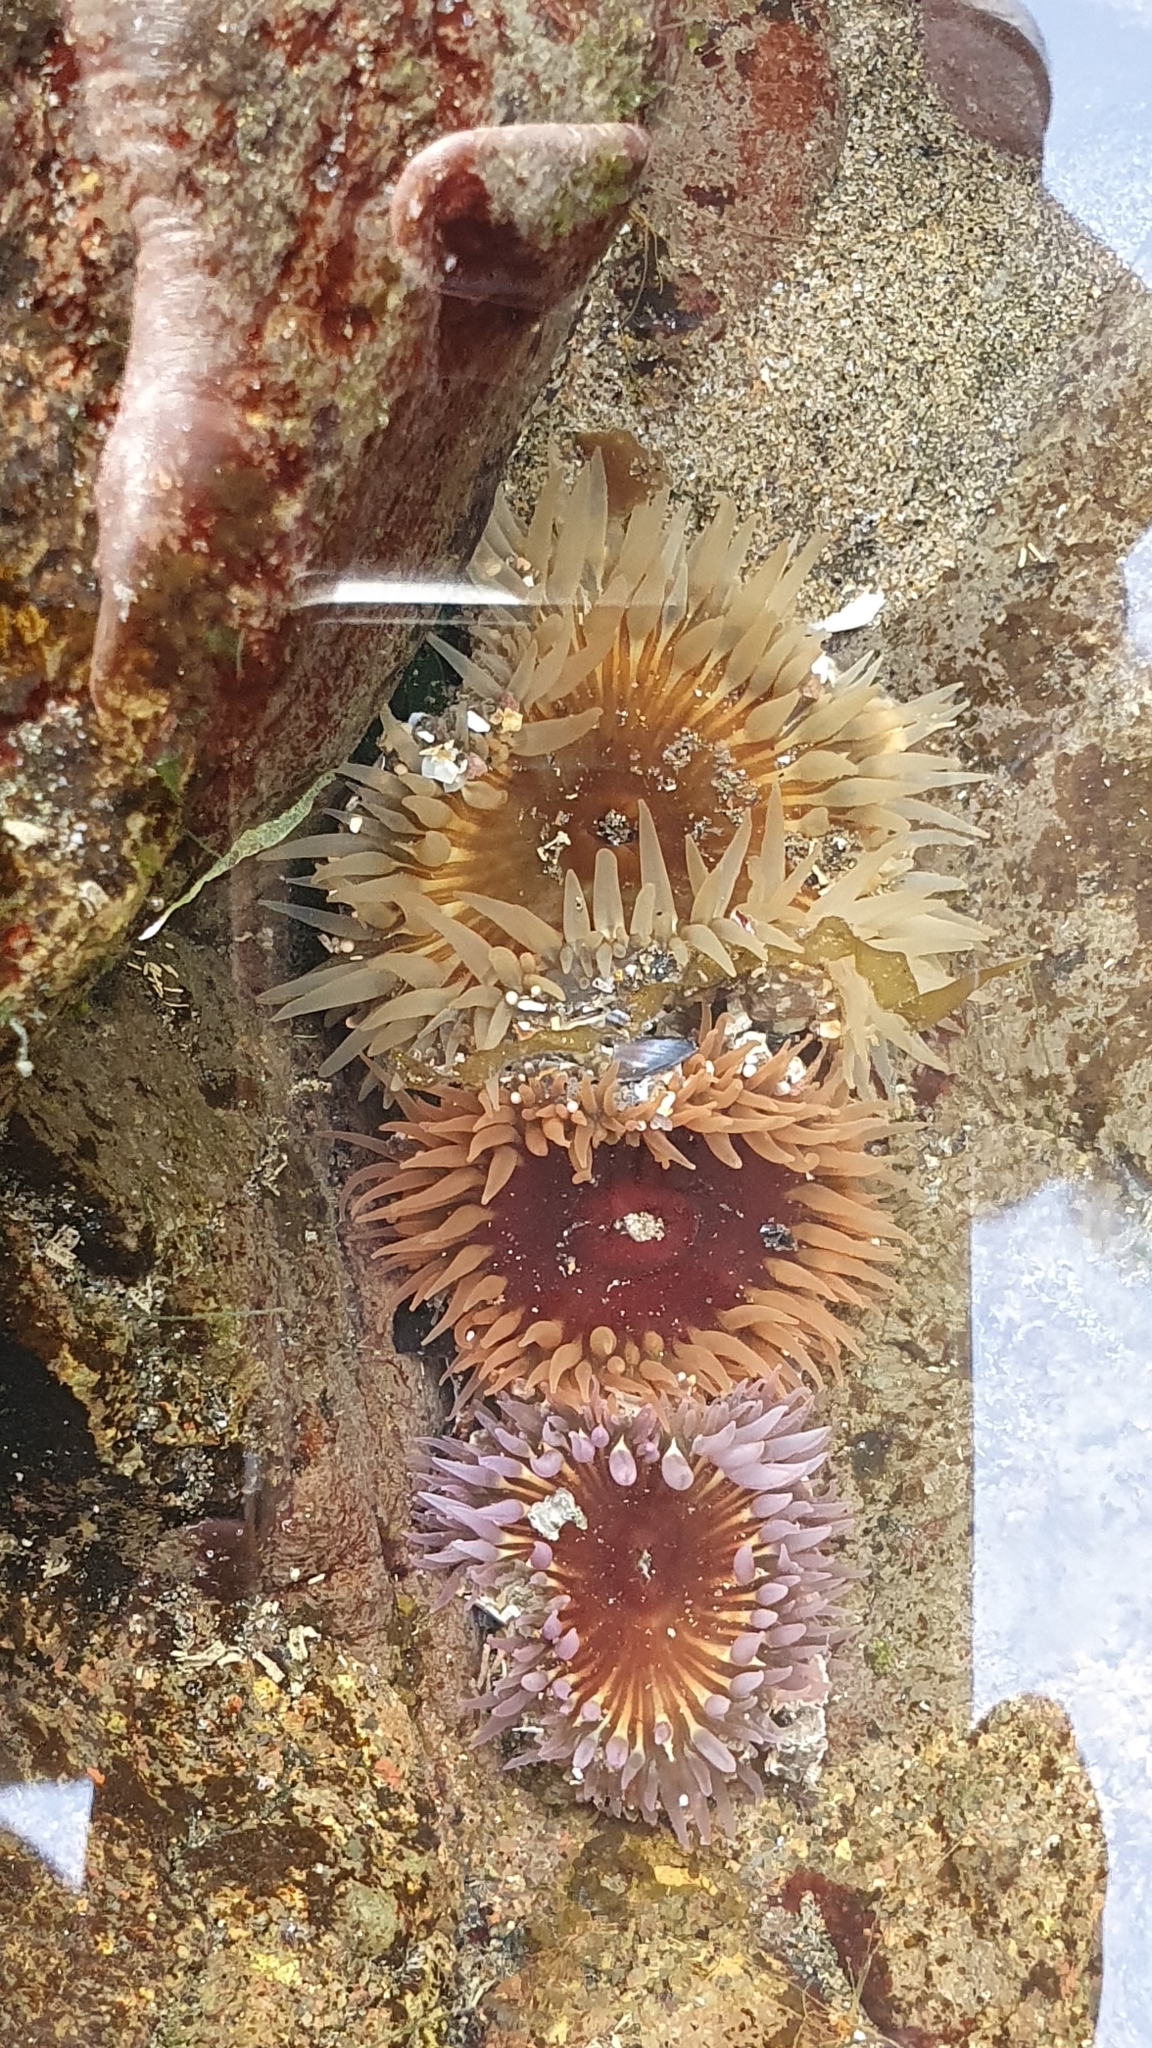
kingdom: Animalia
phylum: Cnidaria
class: Anthozoa
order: Actiniaria
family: Actiniidae
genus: Oulactis
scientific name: Oulactis magna
